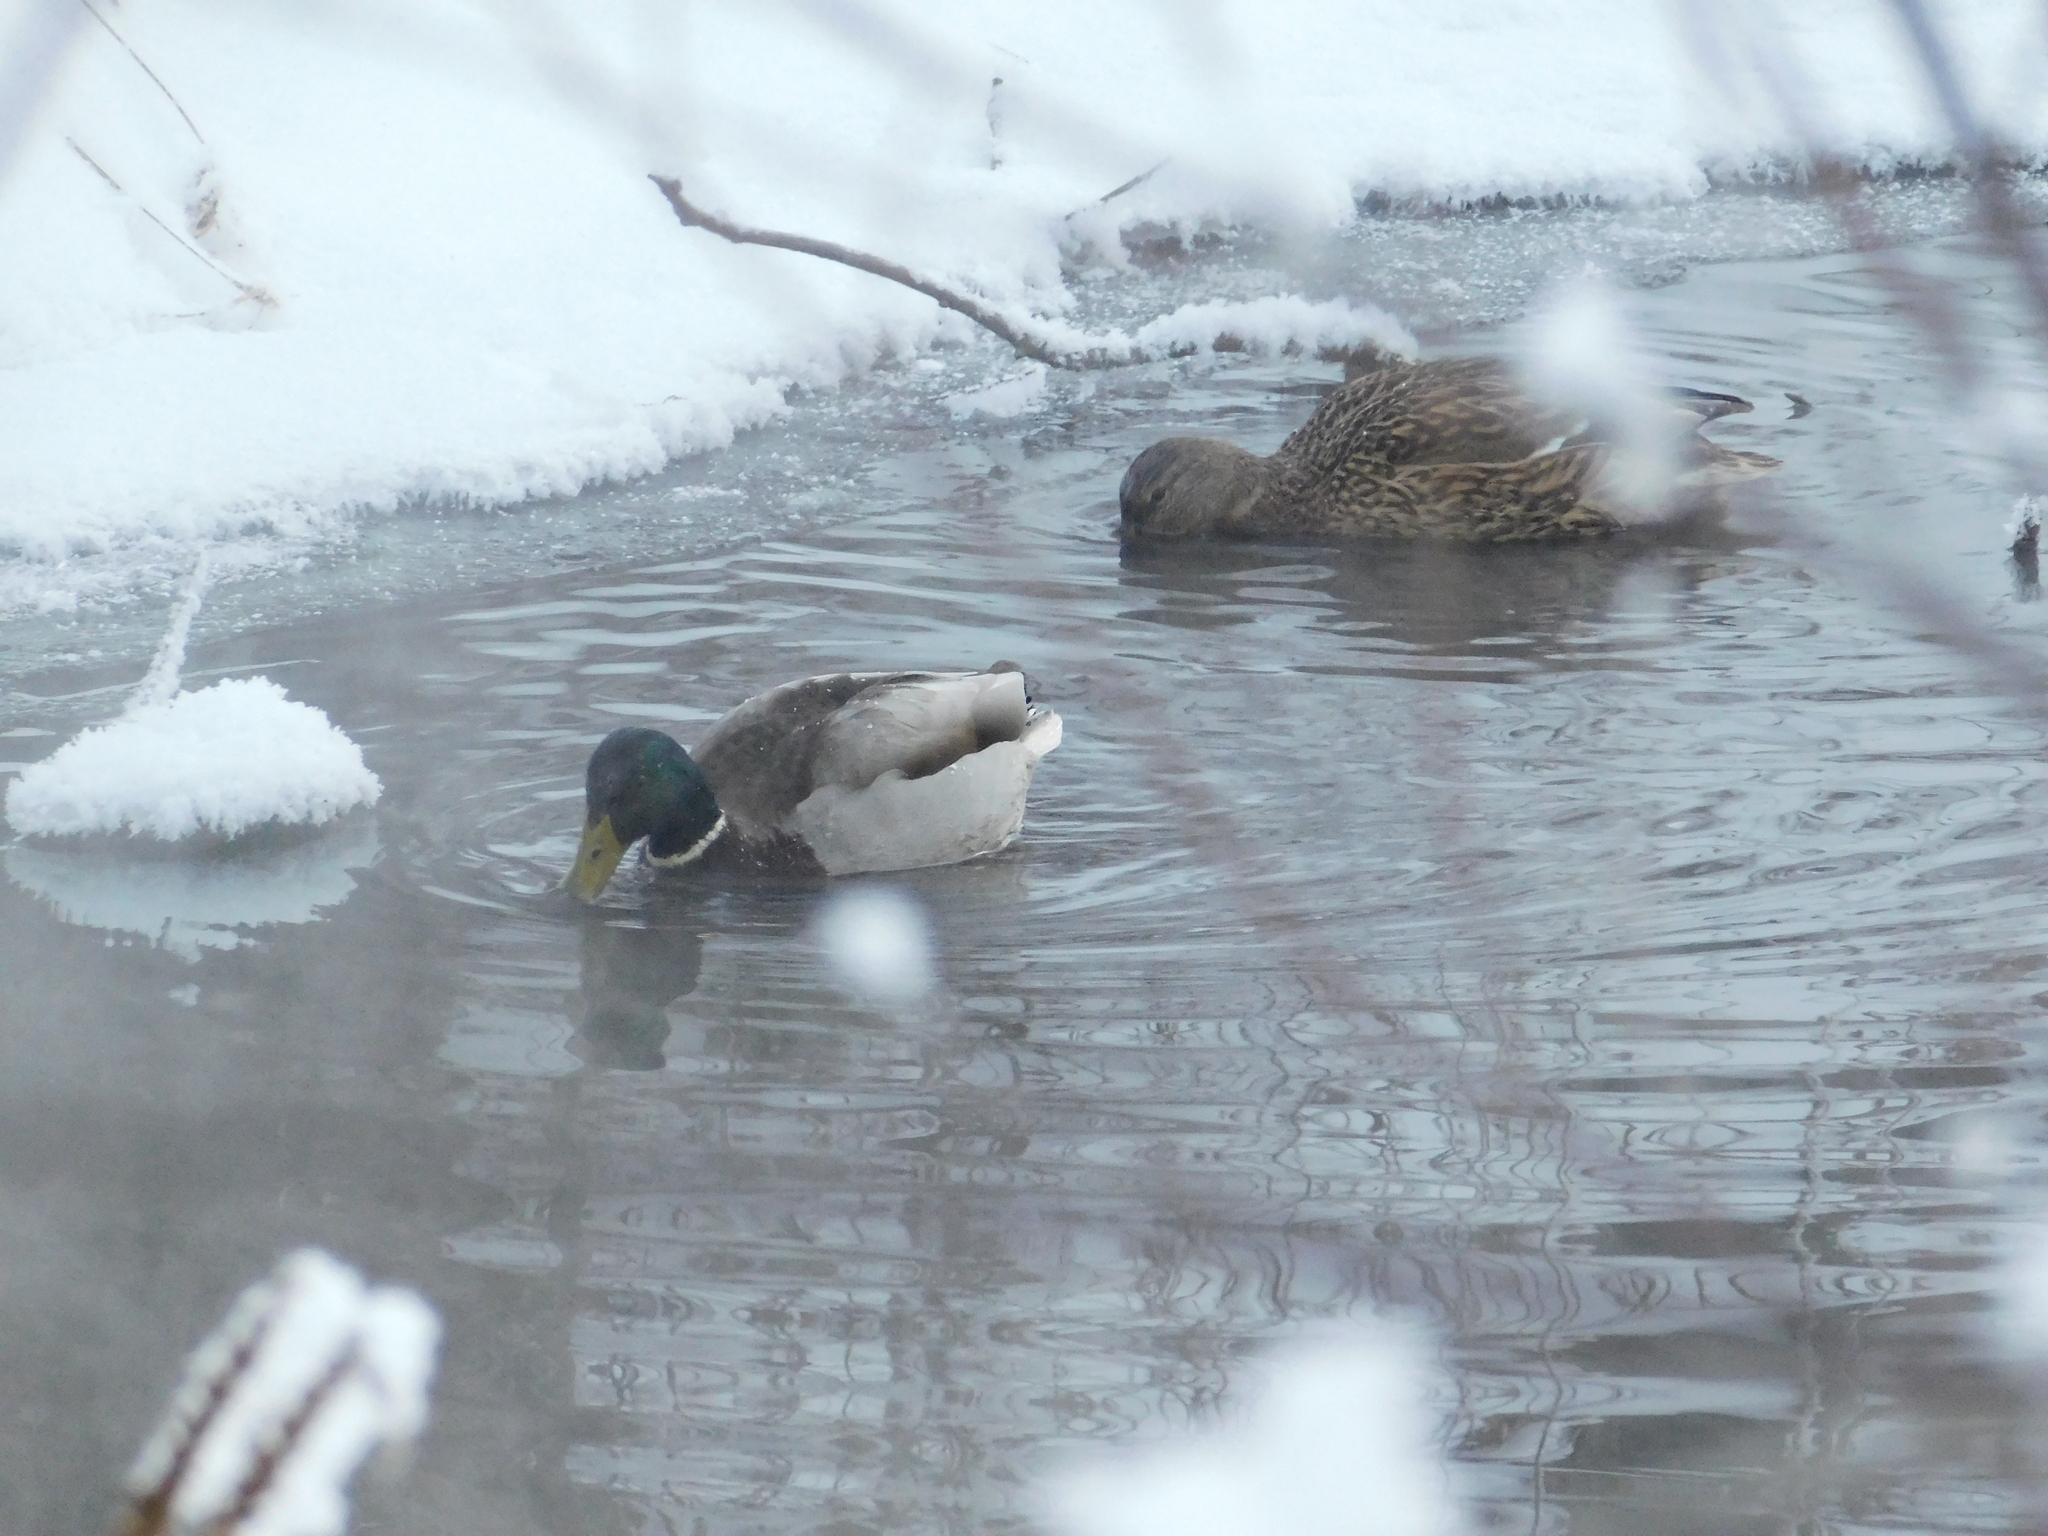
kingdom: Animalia
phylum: Chordata
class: Aves
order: Anseriformes
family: Anatidae
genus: Anas
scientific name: Anas platyrhynchos
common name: Mallard
